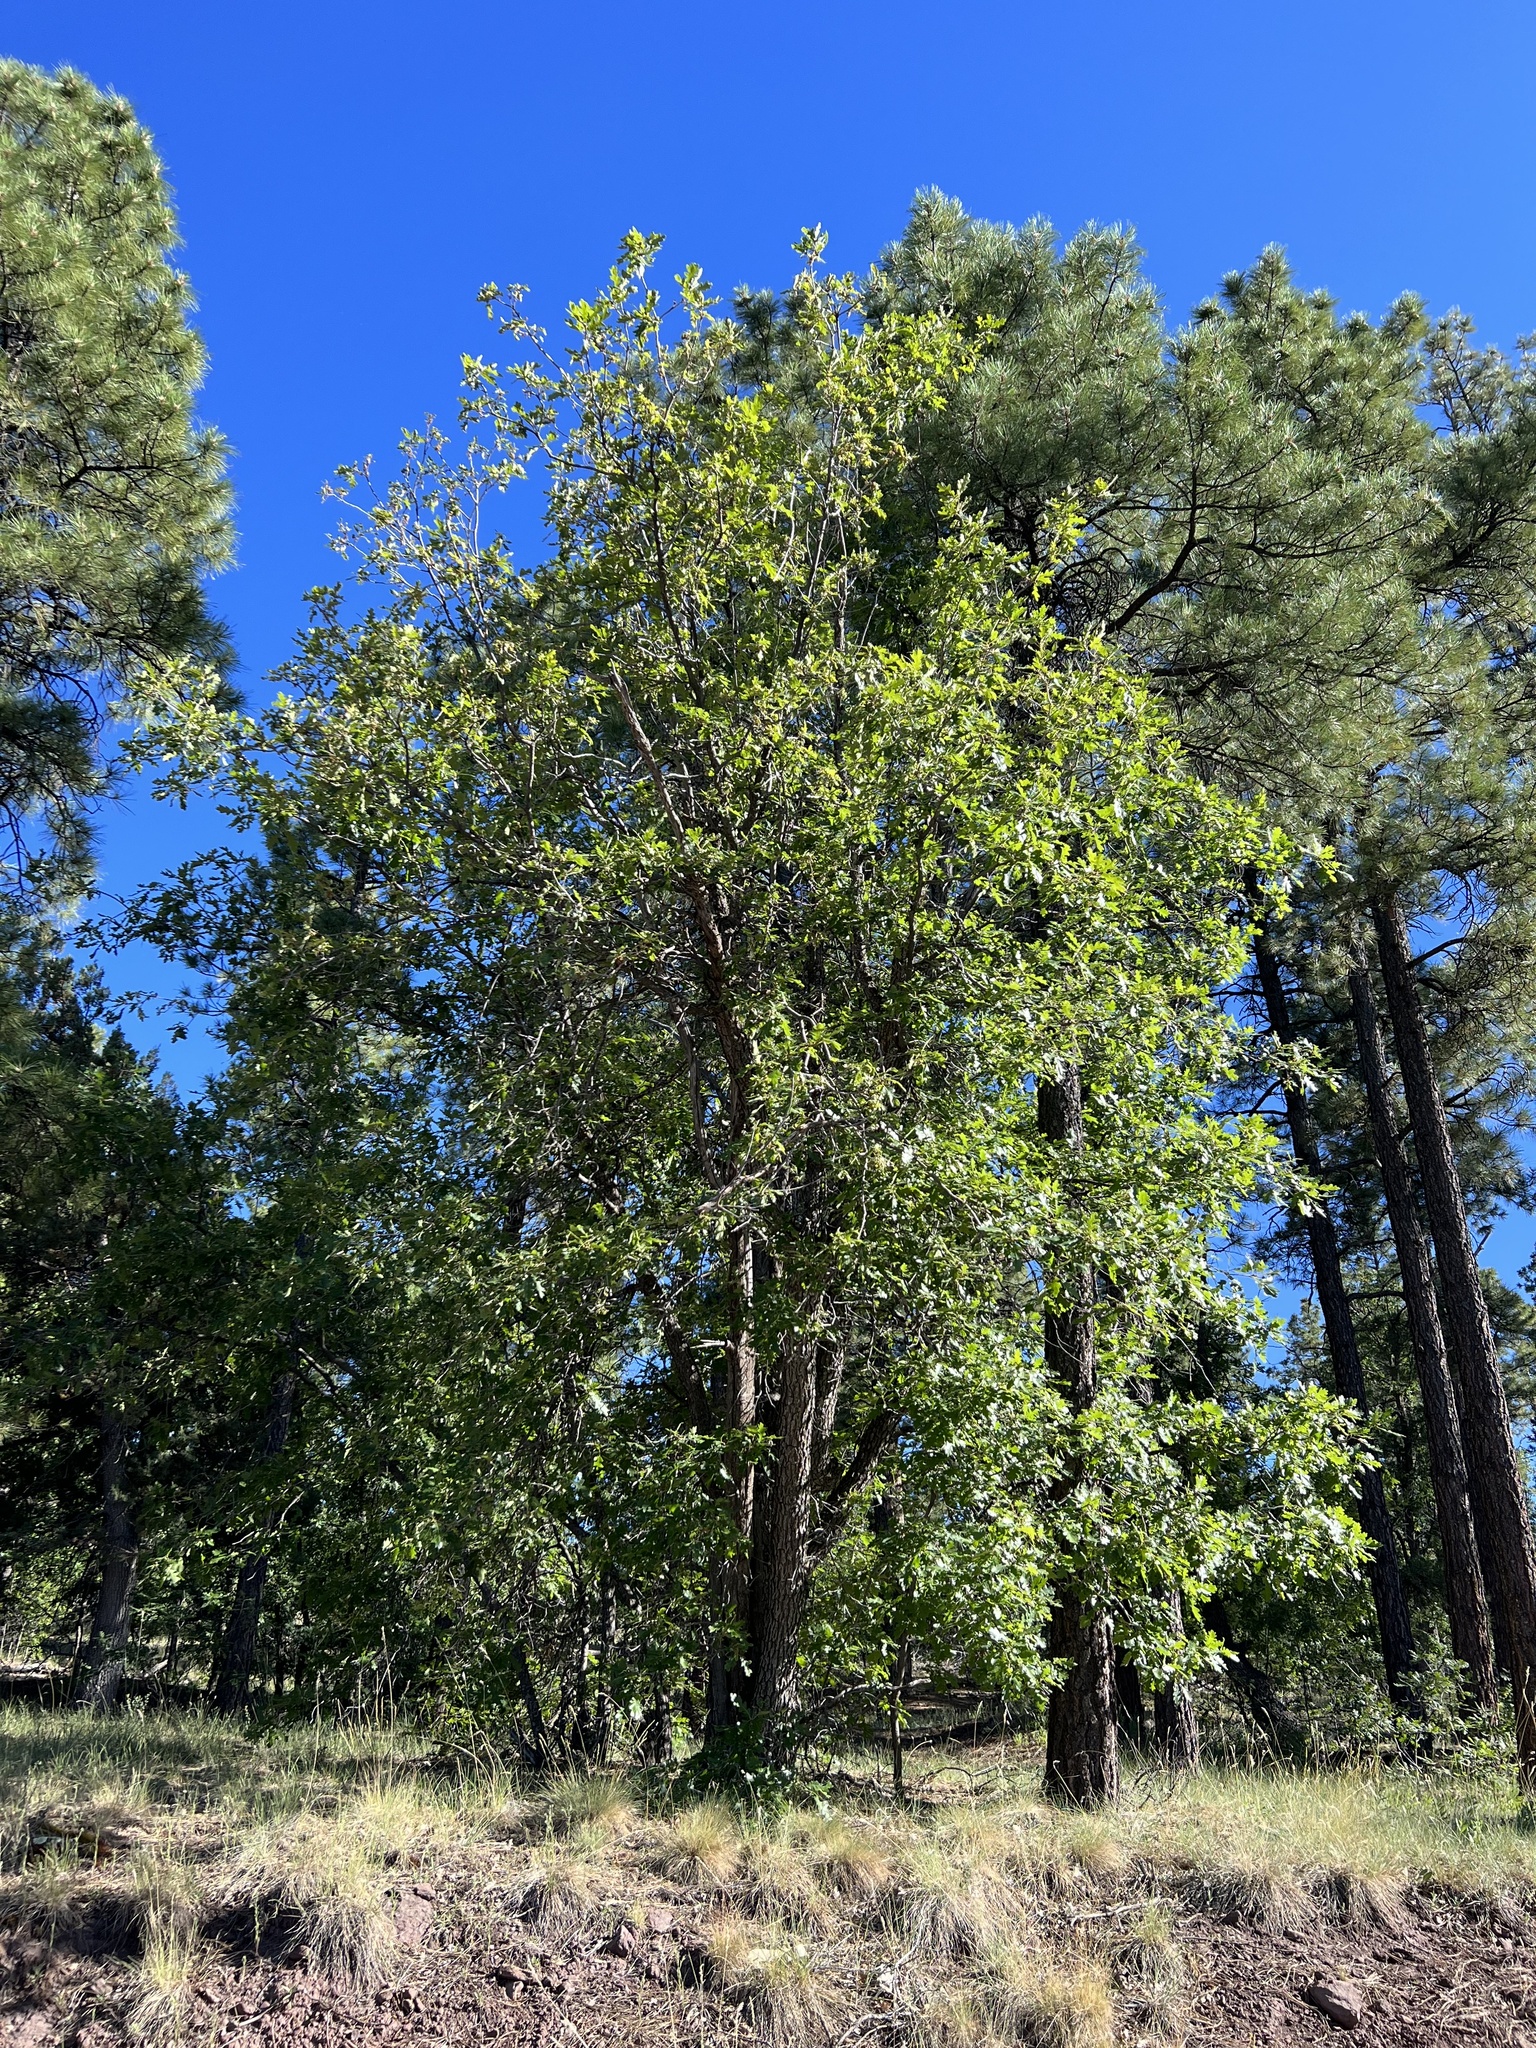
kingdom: Plantae
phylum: Tracheophyta
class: Magnoliopsida
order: Fagales
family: Fagaceae
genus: Quercus
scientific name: Quercus gambelii
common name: Gambel oak
